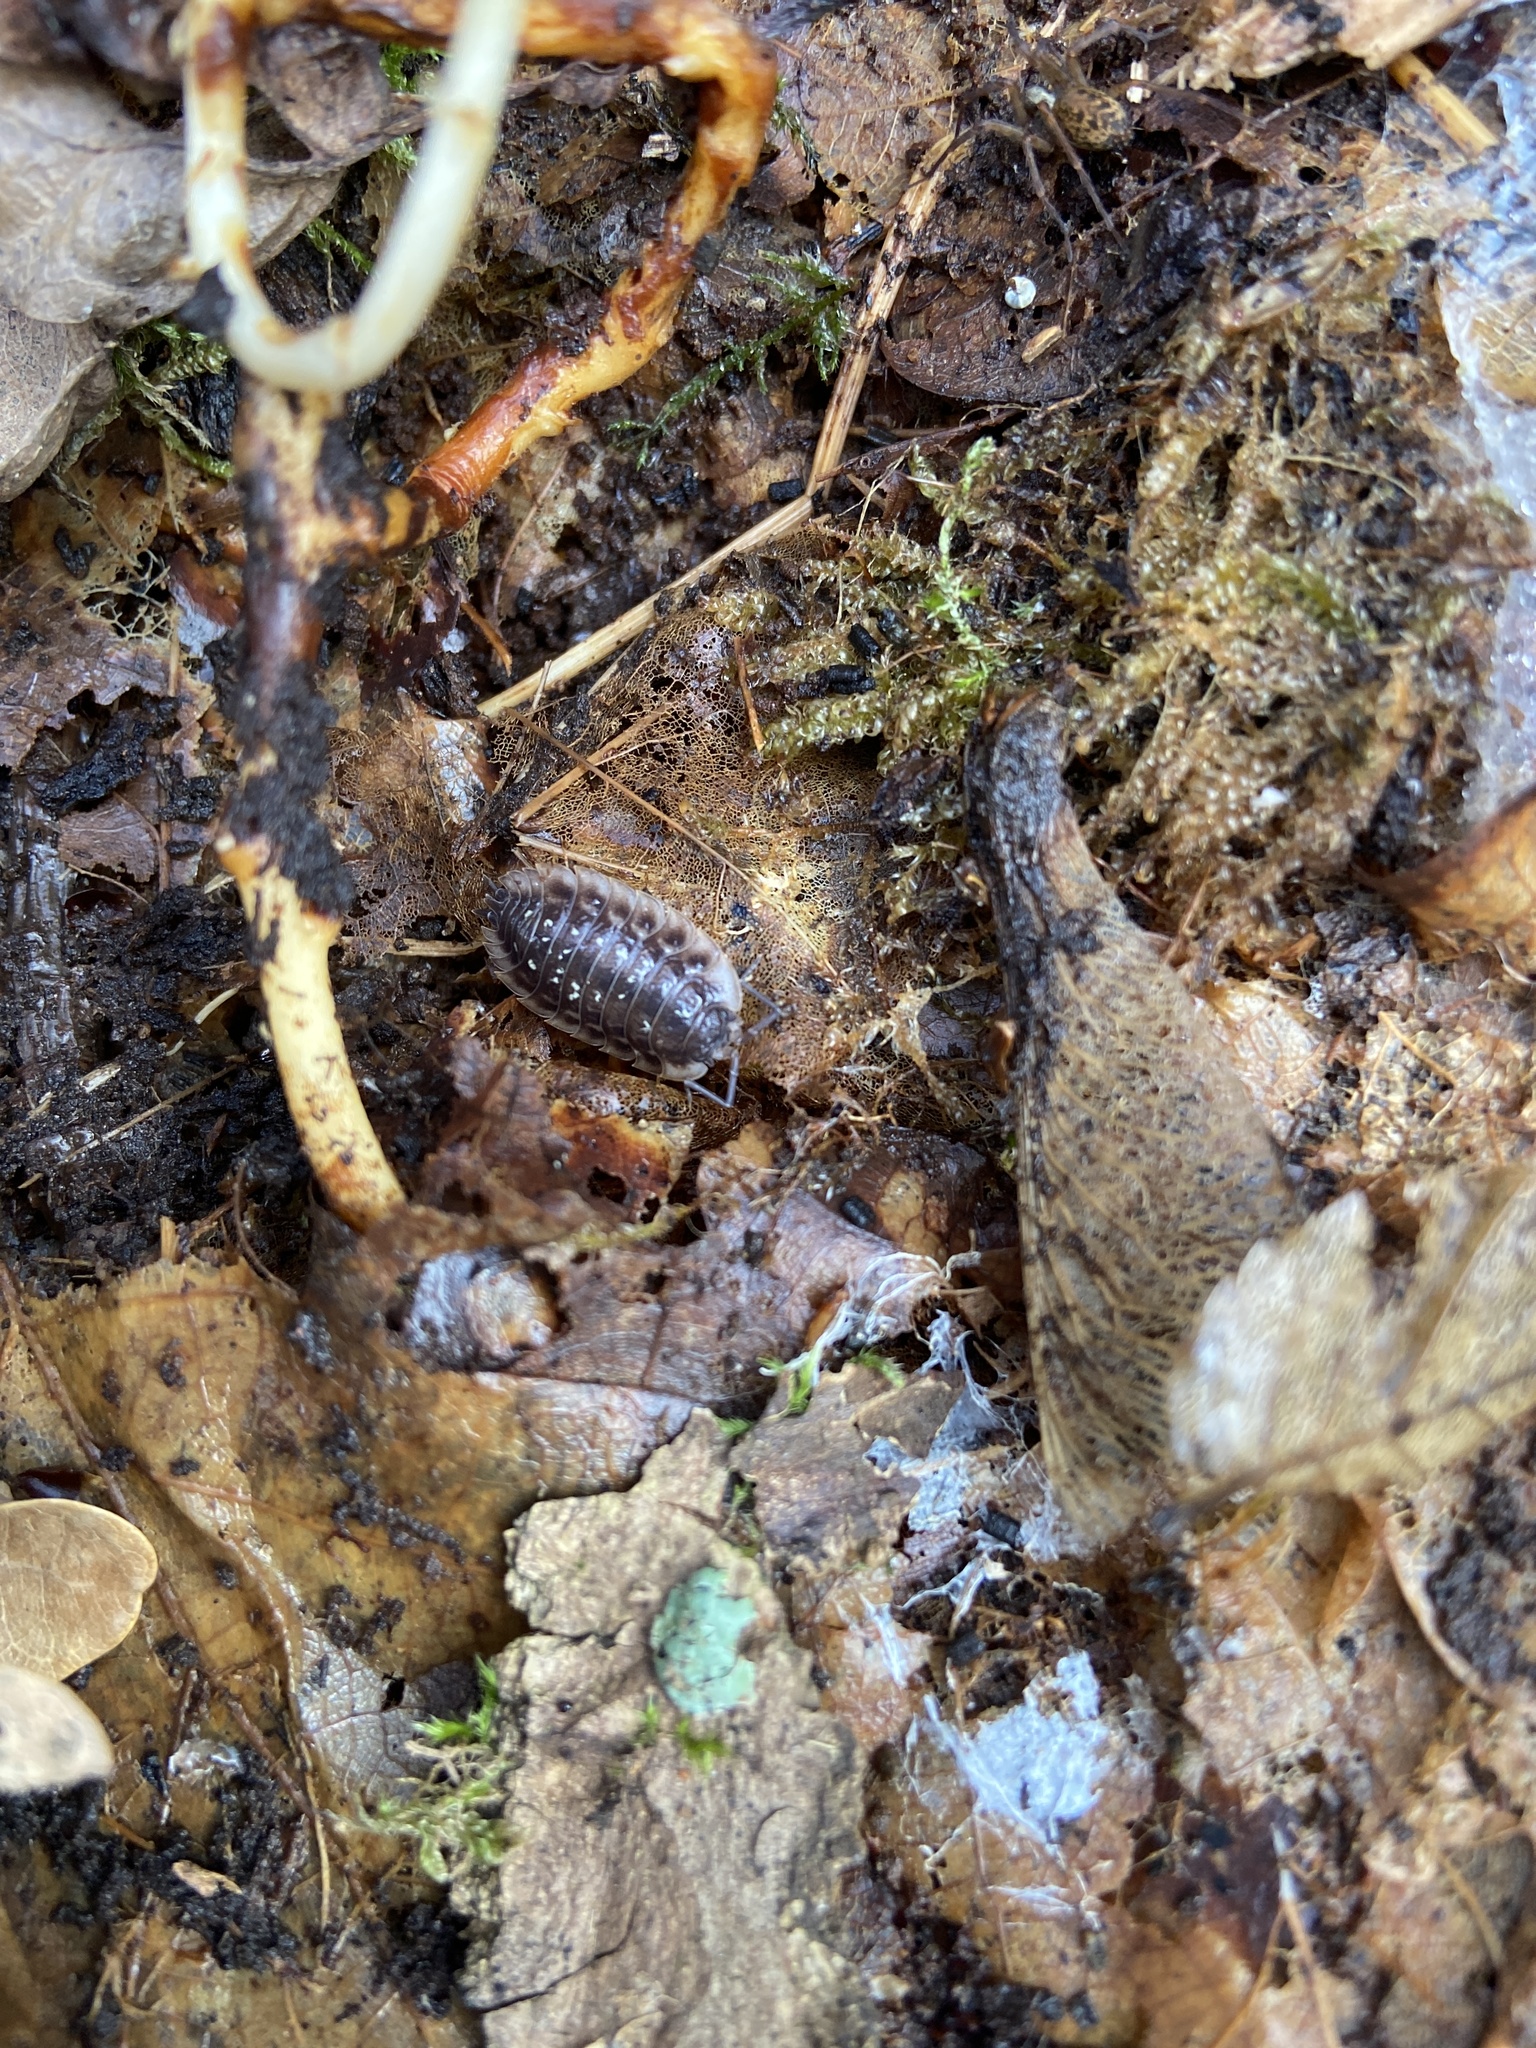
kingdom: Animalia
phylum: Arthropoda
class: Malacostraca
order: Isopoda
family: Oniscidae
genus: Oniscus
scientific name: Oniscus asellus
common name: Common shiny woodlouse
